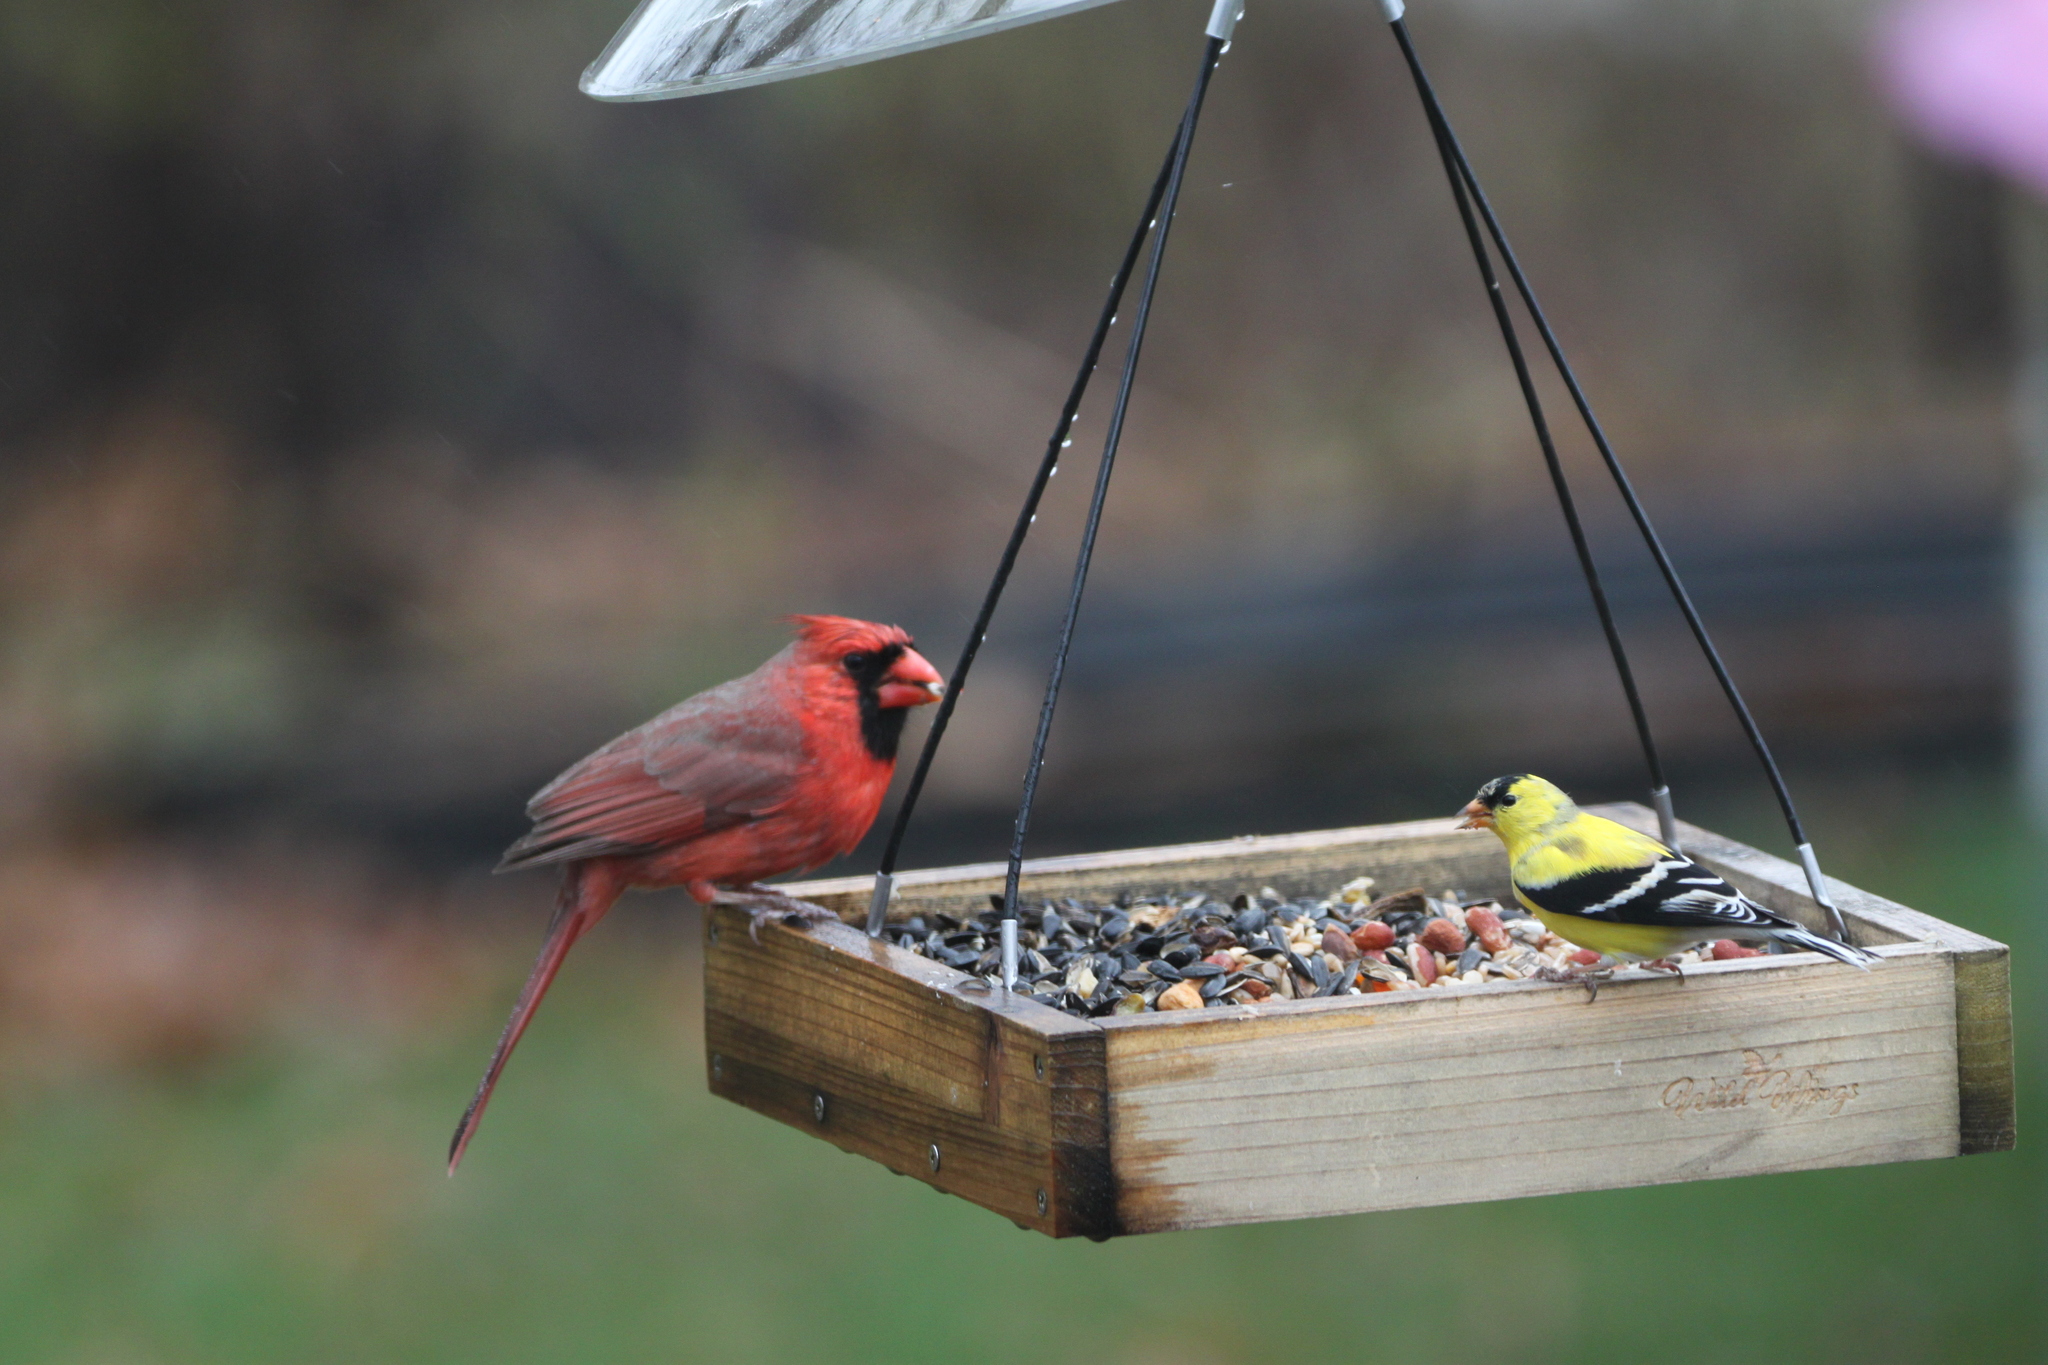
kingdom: Animalia
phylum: Chordata
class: Aves
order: Passeriformes
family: Cardinalidae
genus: Cardinalis
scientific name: Cardinalis cardinalis
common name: Northern cardinal
